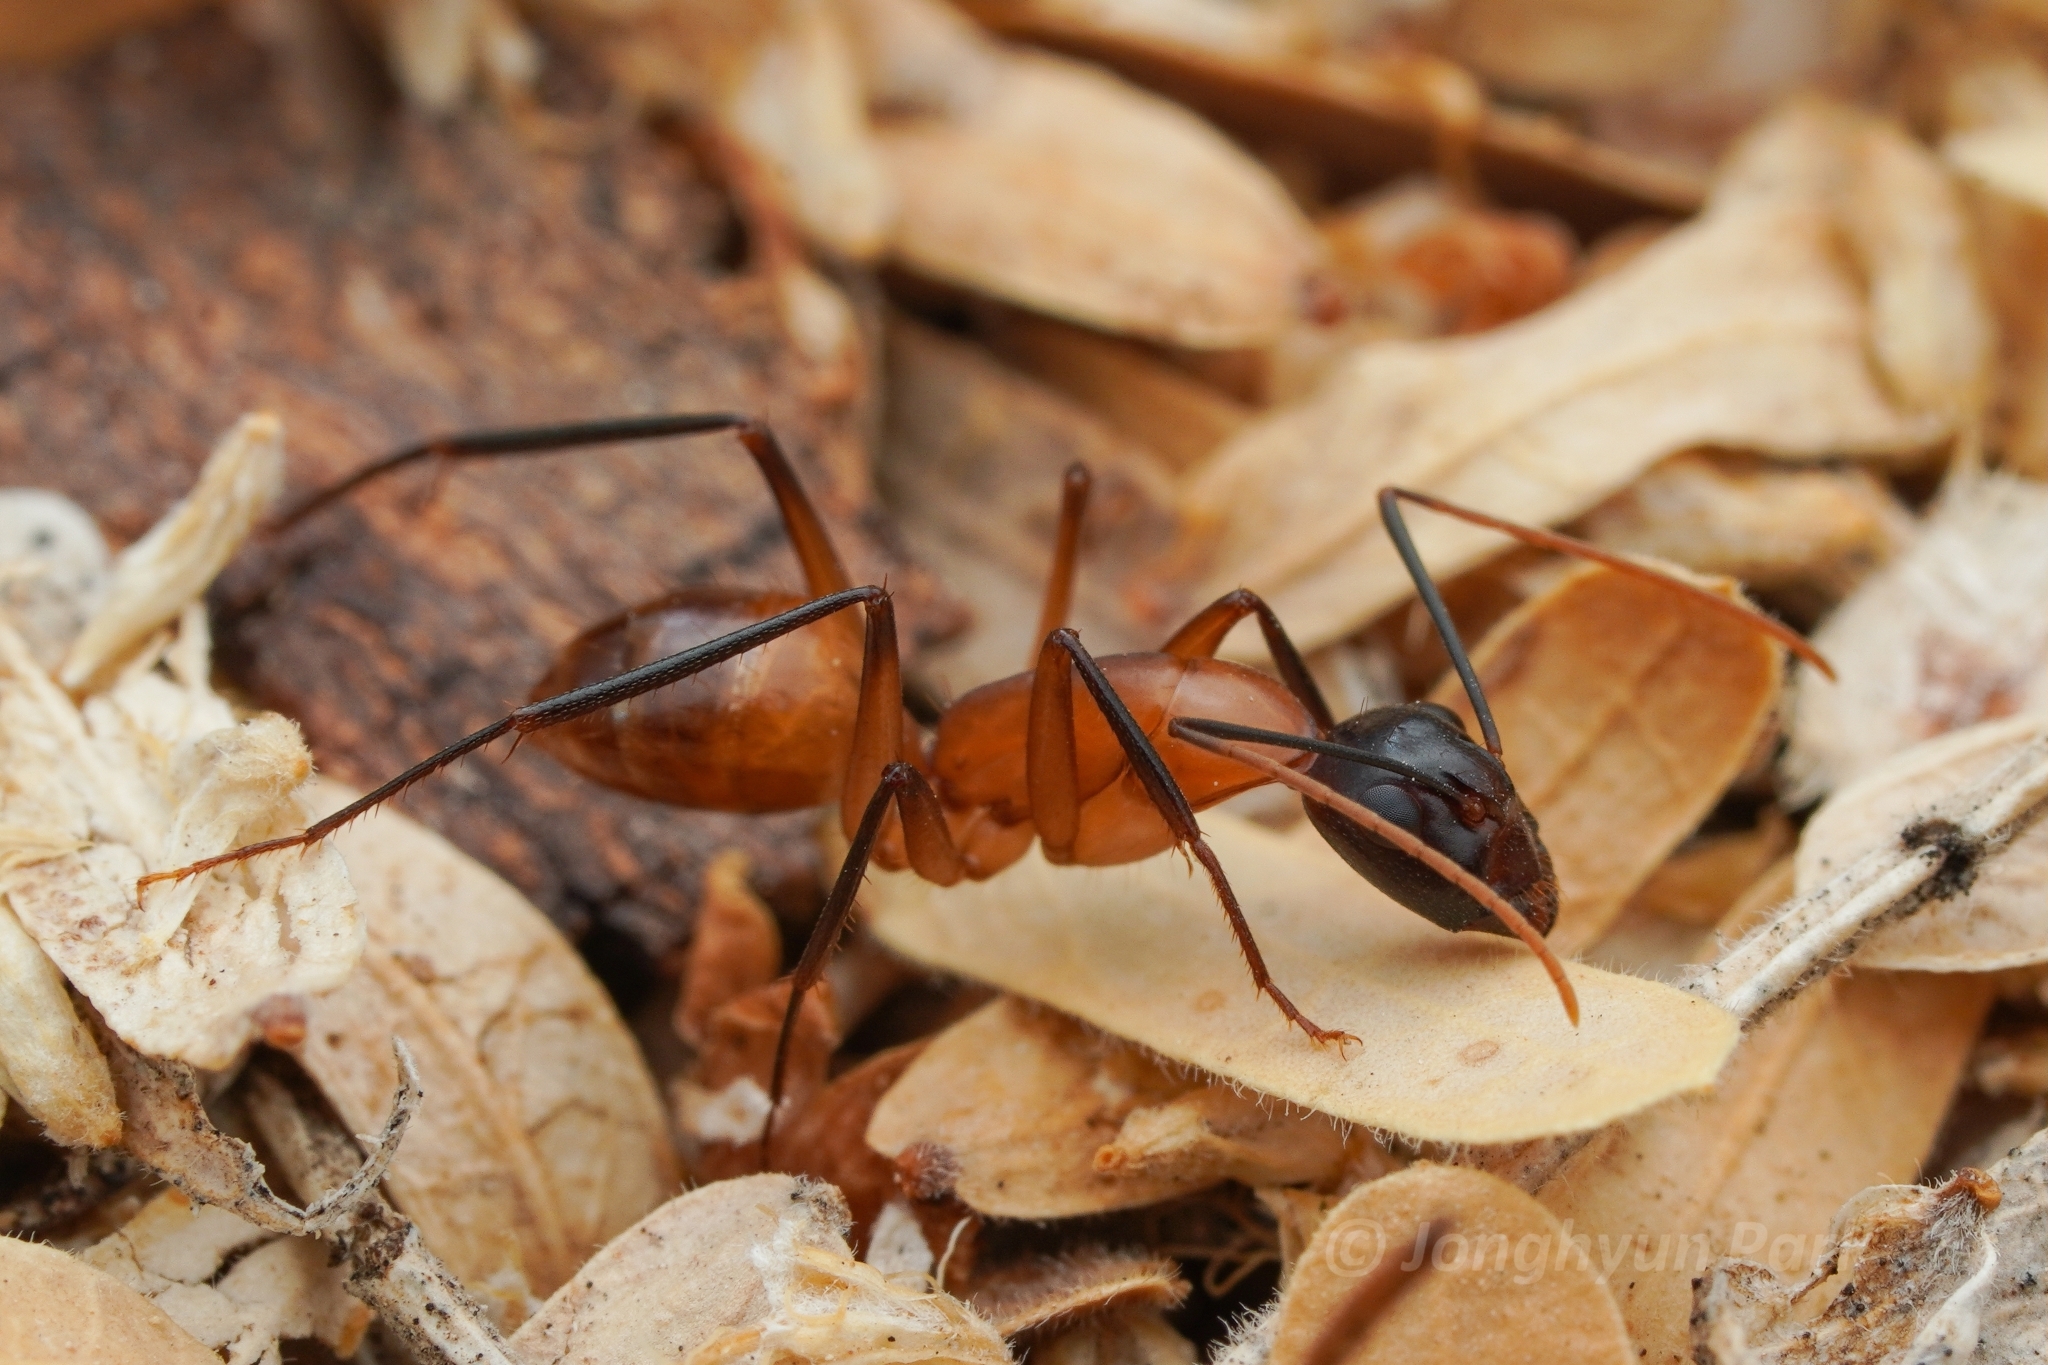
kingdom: Animalia
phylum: Arthropoda
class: Insecta
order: Hymenoptera
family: Formicidae
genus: Camponotus
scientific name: Camponotus ocreatus
